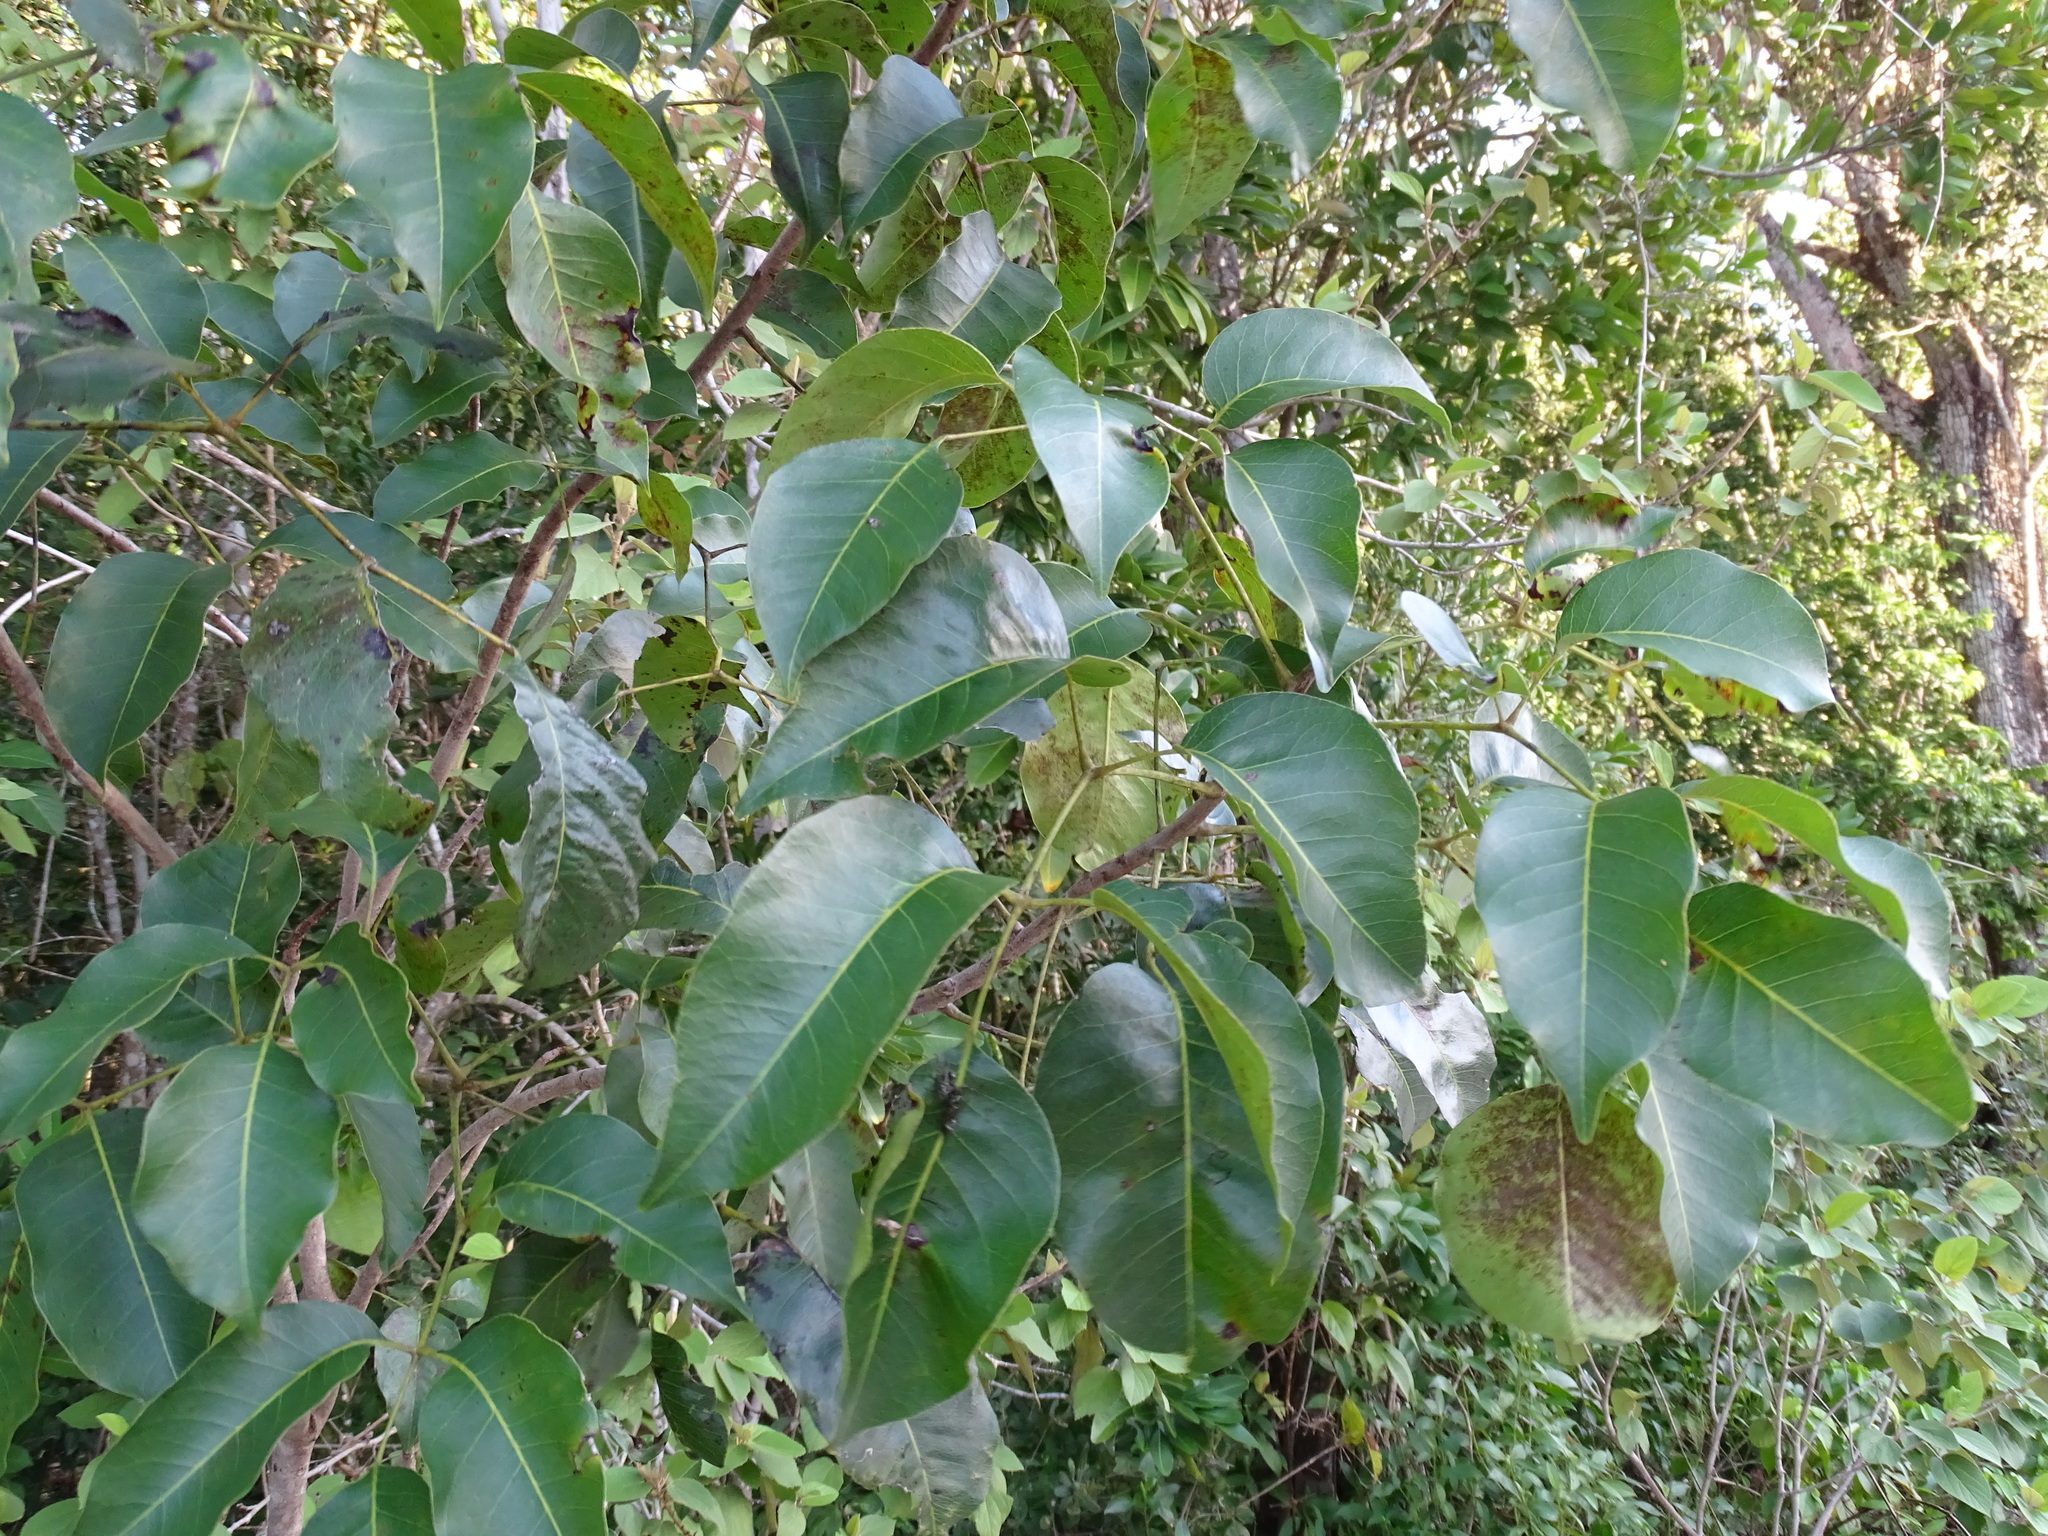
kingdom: Plantae
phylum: Tracheophyta
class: Magnoliopsida
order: Sapindales
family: Anacardiaceae
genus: Metopium
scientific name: Metopium brownei
